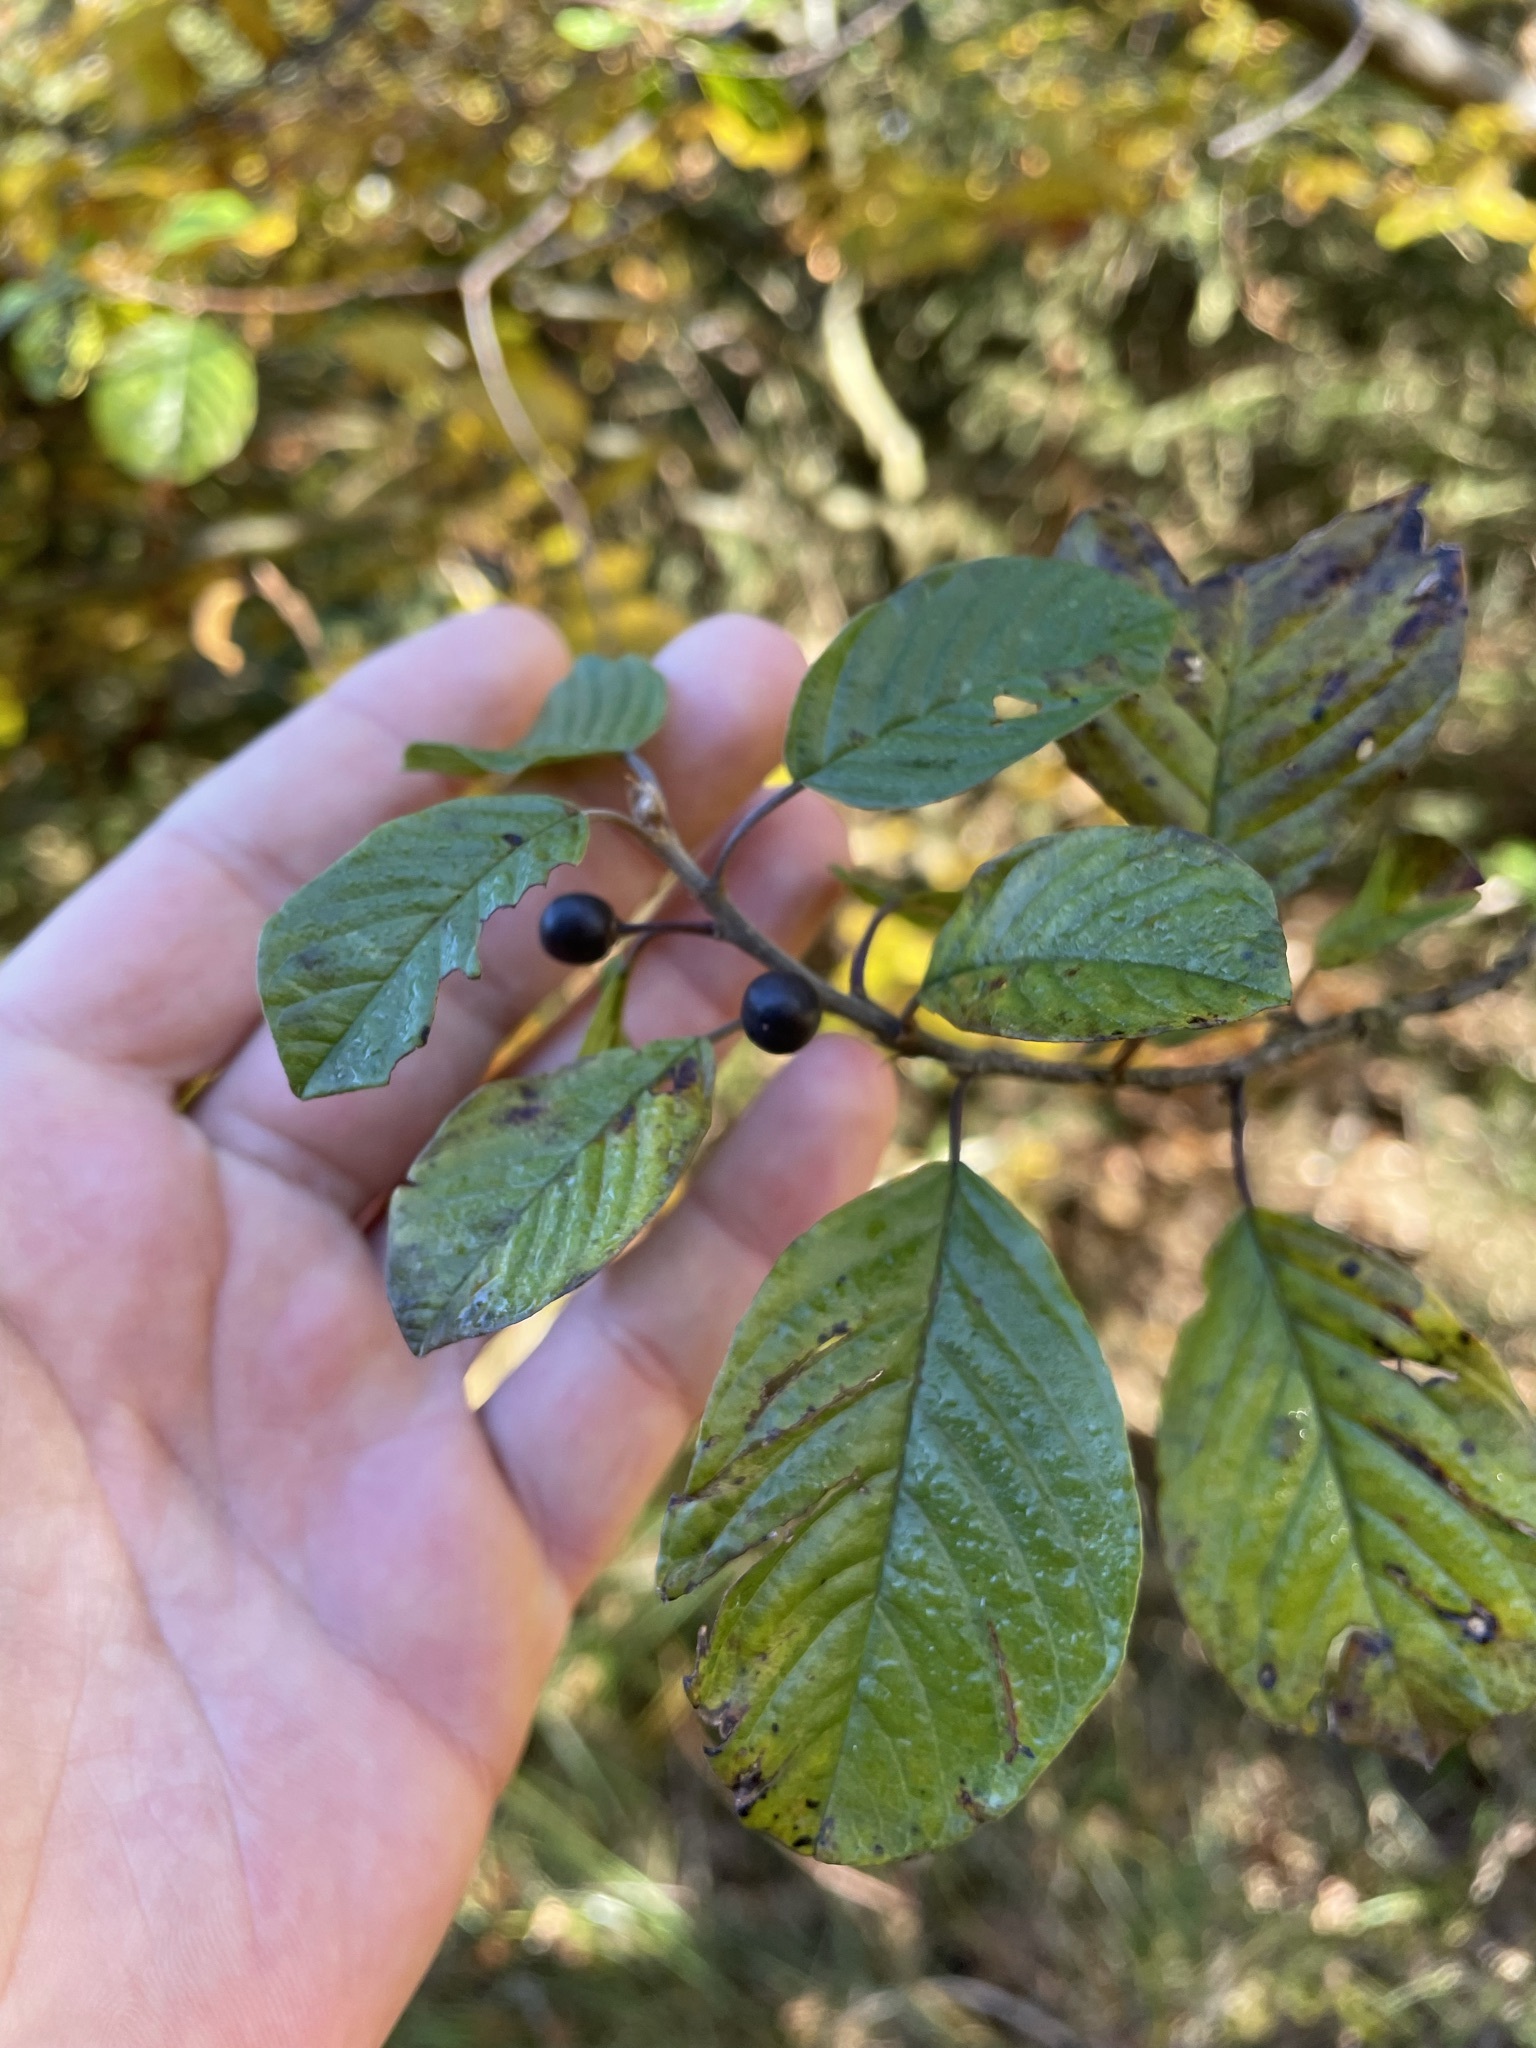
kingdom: Plantae
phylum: Tracheophyta
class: Magnoliopsida
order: Rosales
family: Rhamnaceae
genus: Frangula
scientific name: Frangula alnus
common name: Alder buckthorn
